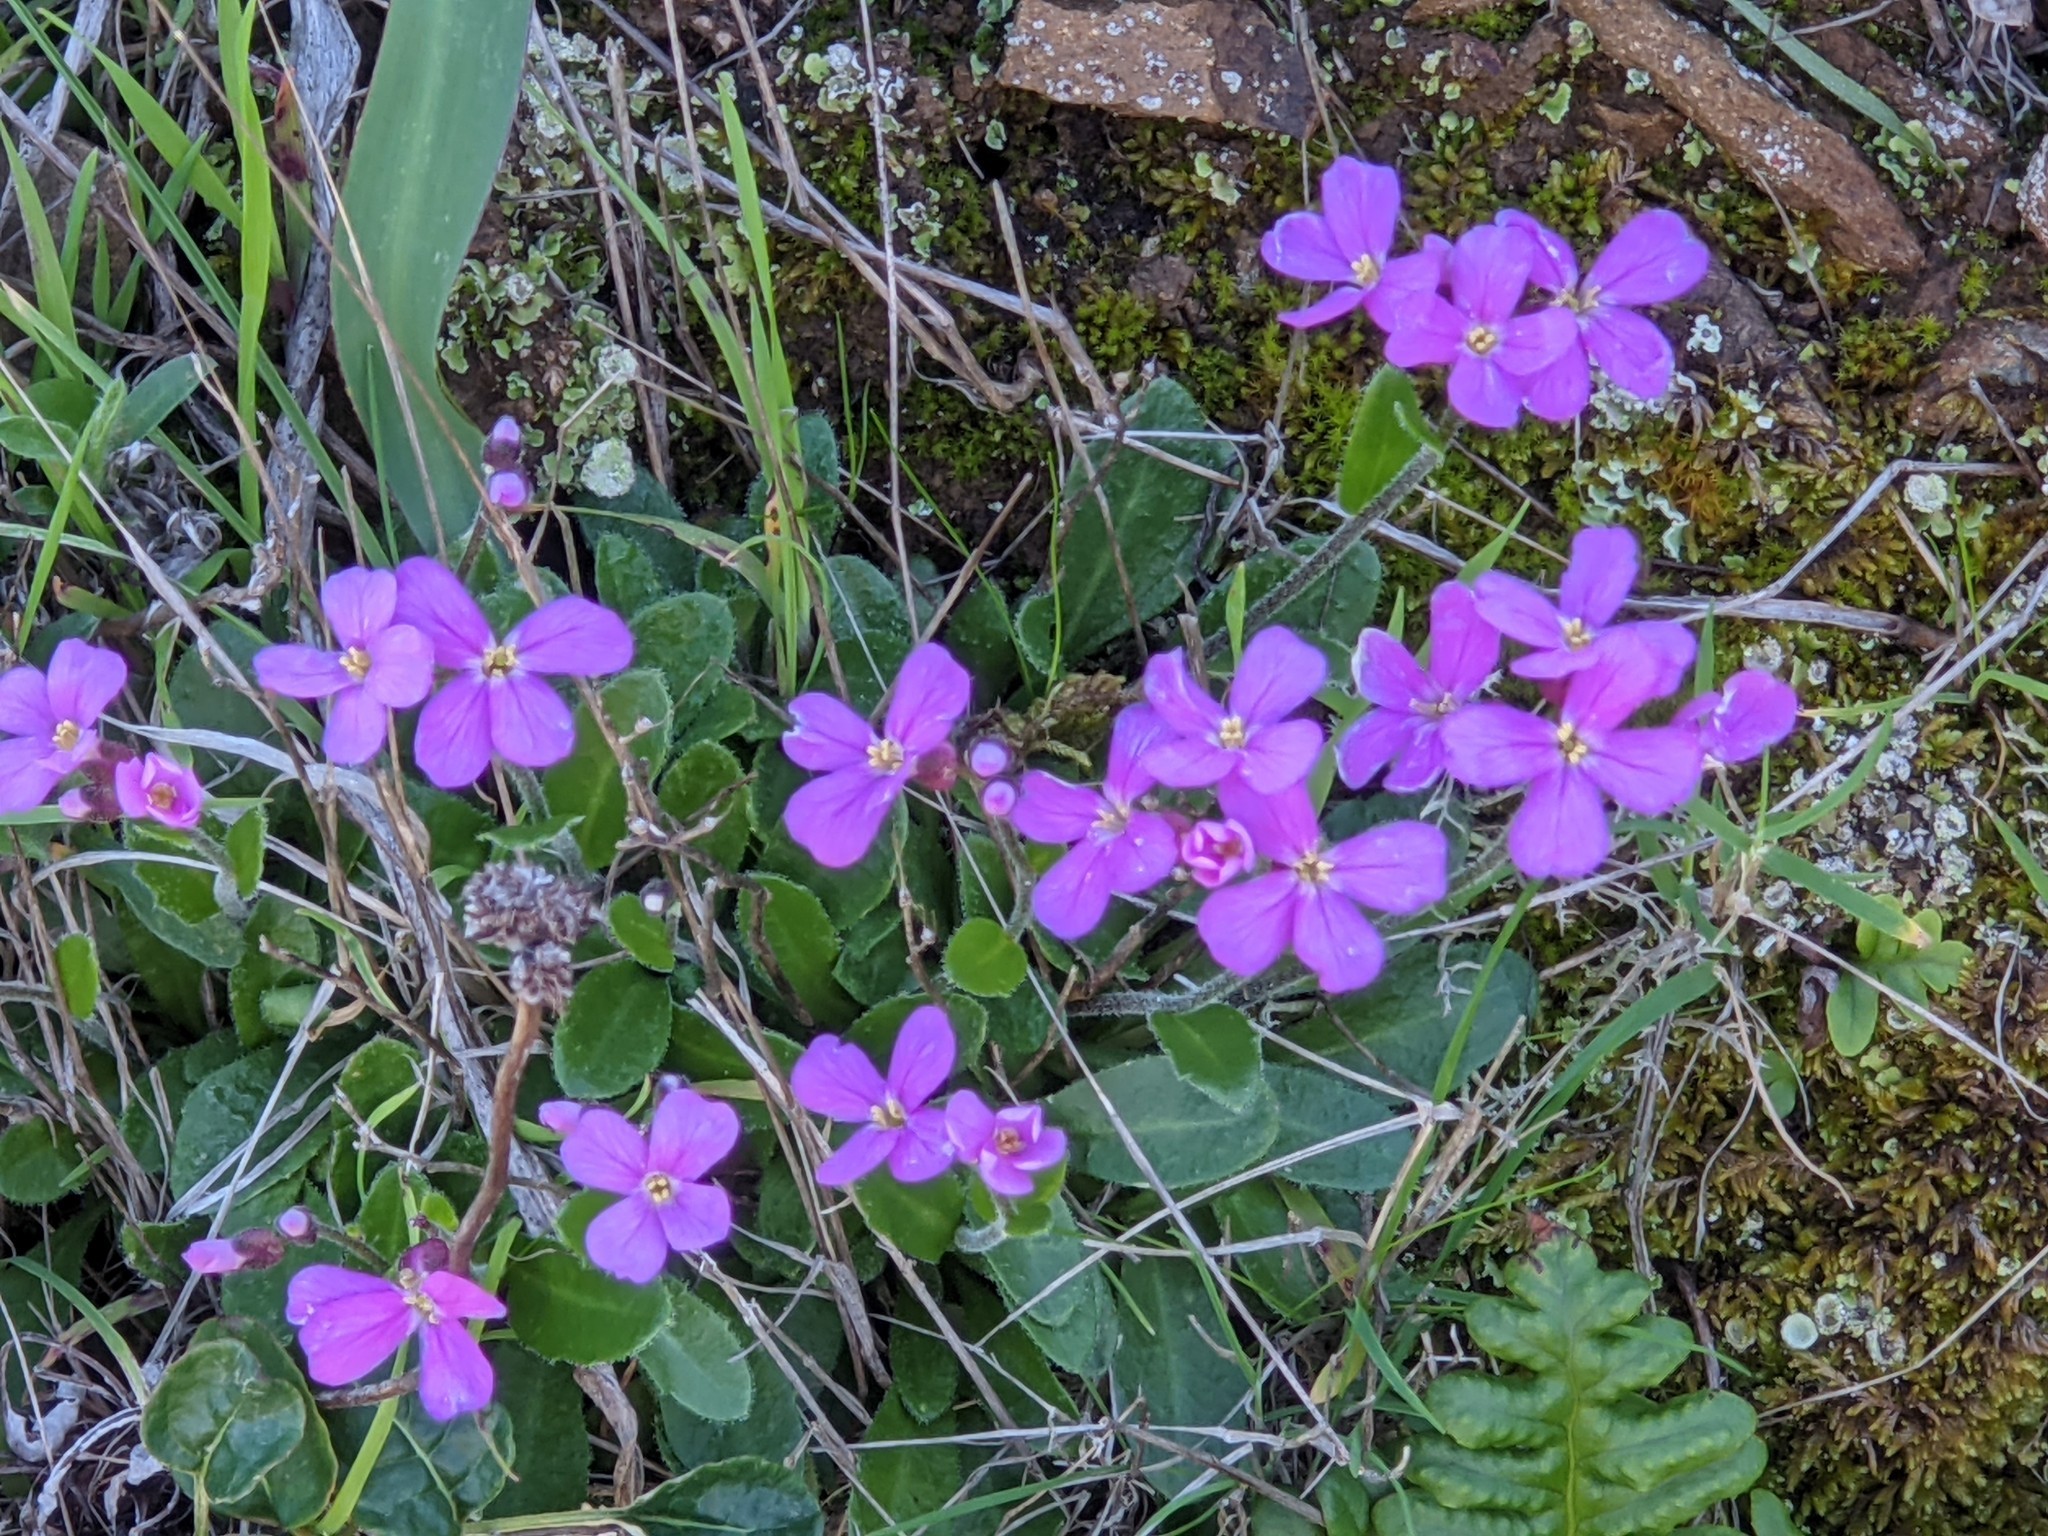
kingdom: Plantae
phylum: Tracheophyta
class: Magnoliopsida
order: Brassicales
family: Brassicaceae
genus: Arabis
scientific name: Arabis blepharophylla
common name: Rose rockcress
